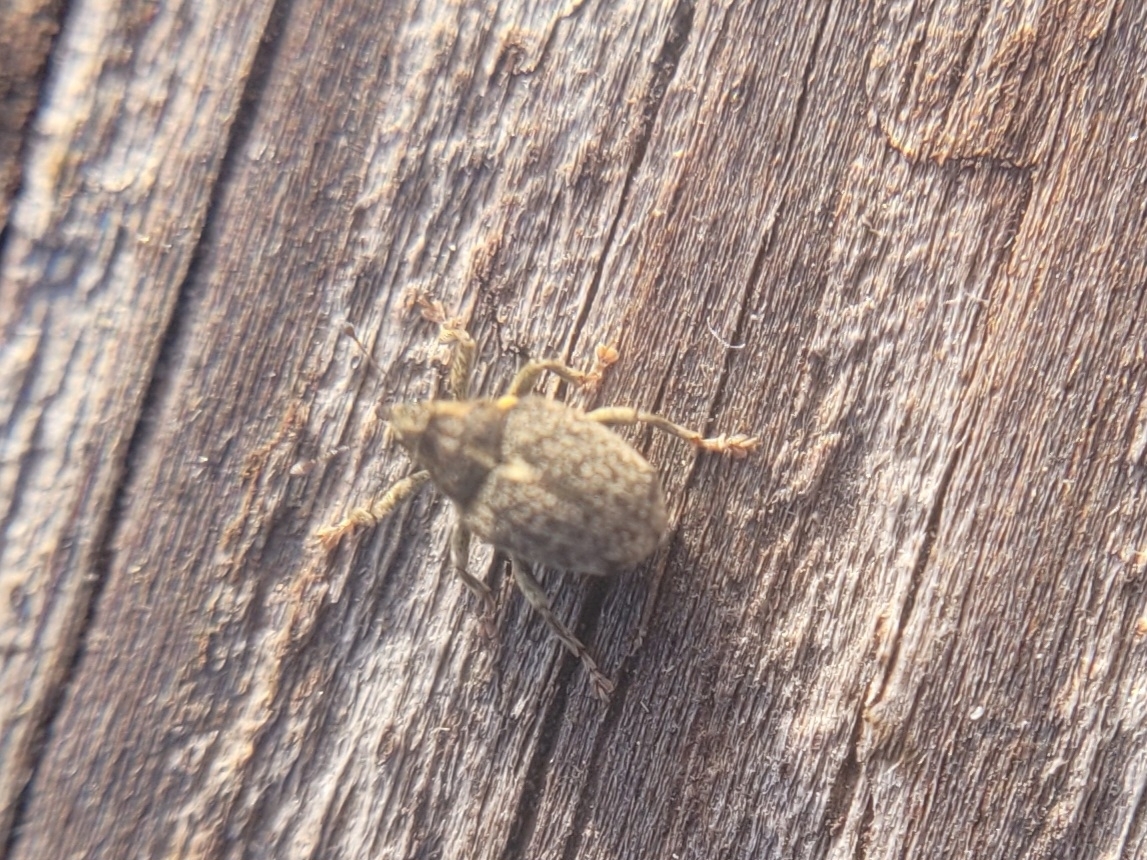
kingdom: Animalia
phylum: Arthropoda
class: Insecta
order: Coleoptera
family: Curculionidae
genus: Ceutorhynchus
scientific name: Ceutorhynchus pallidactylus
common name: Cabbage stem weavil
